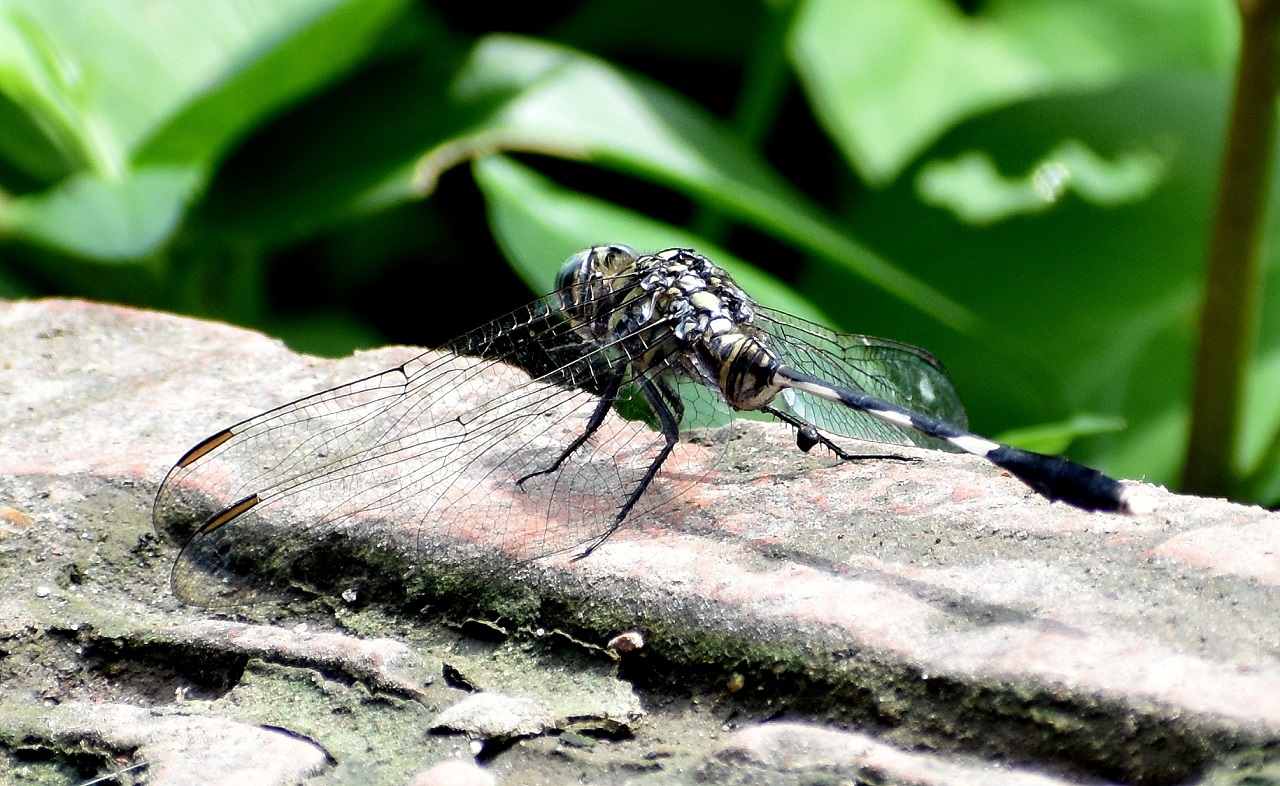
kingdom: Animalia
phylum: Arthropoda
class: Insecta
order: Odonata
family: Libellulidae
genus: Orthetrum
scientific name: Orthetrum sabina
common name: Slender skimmer
